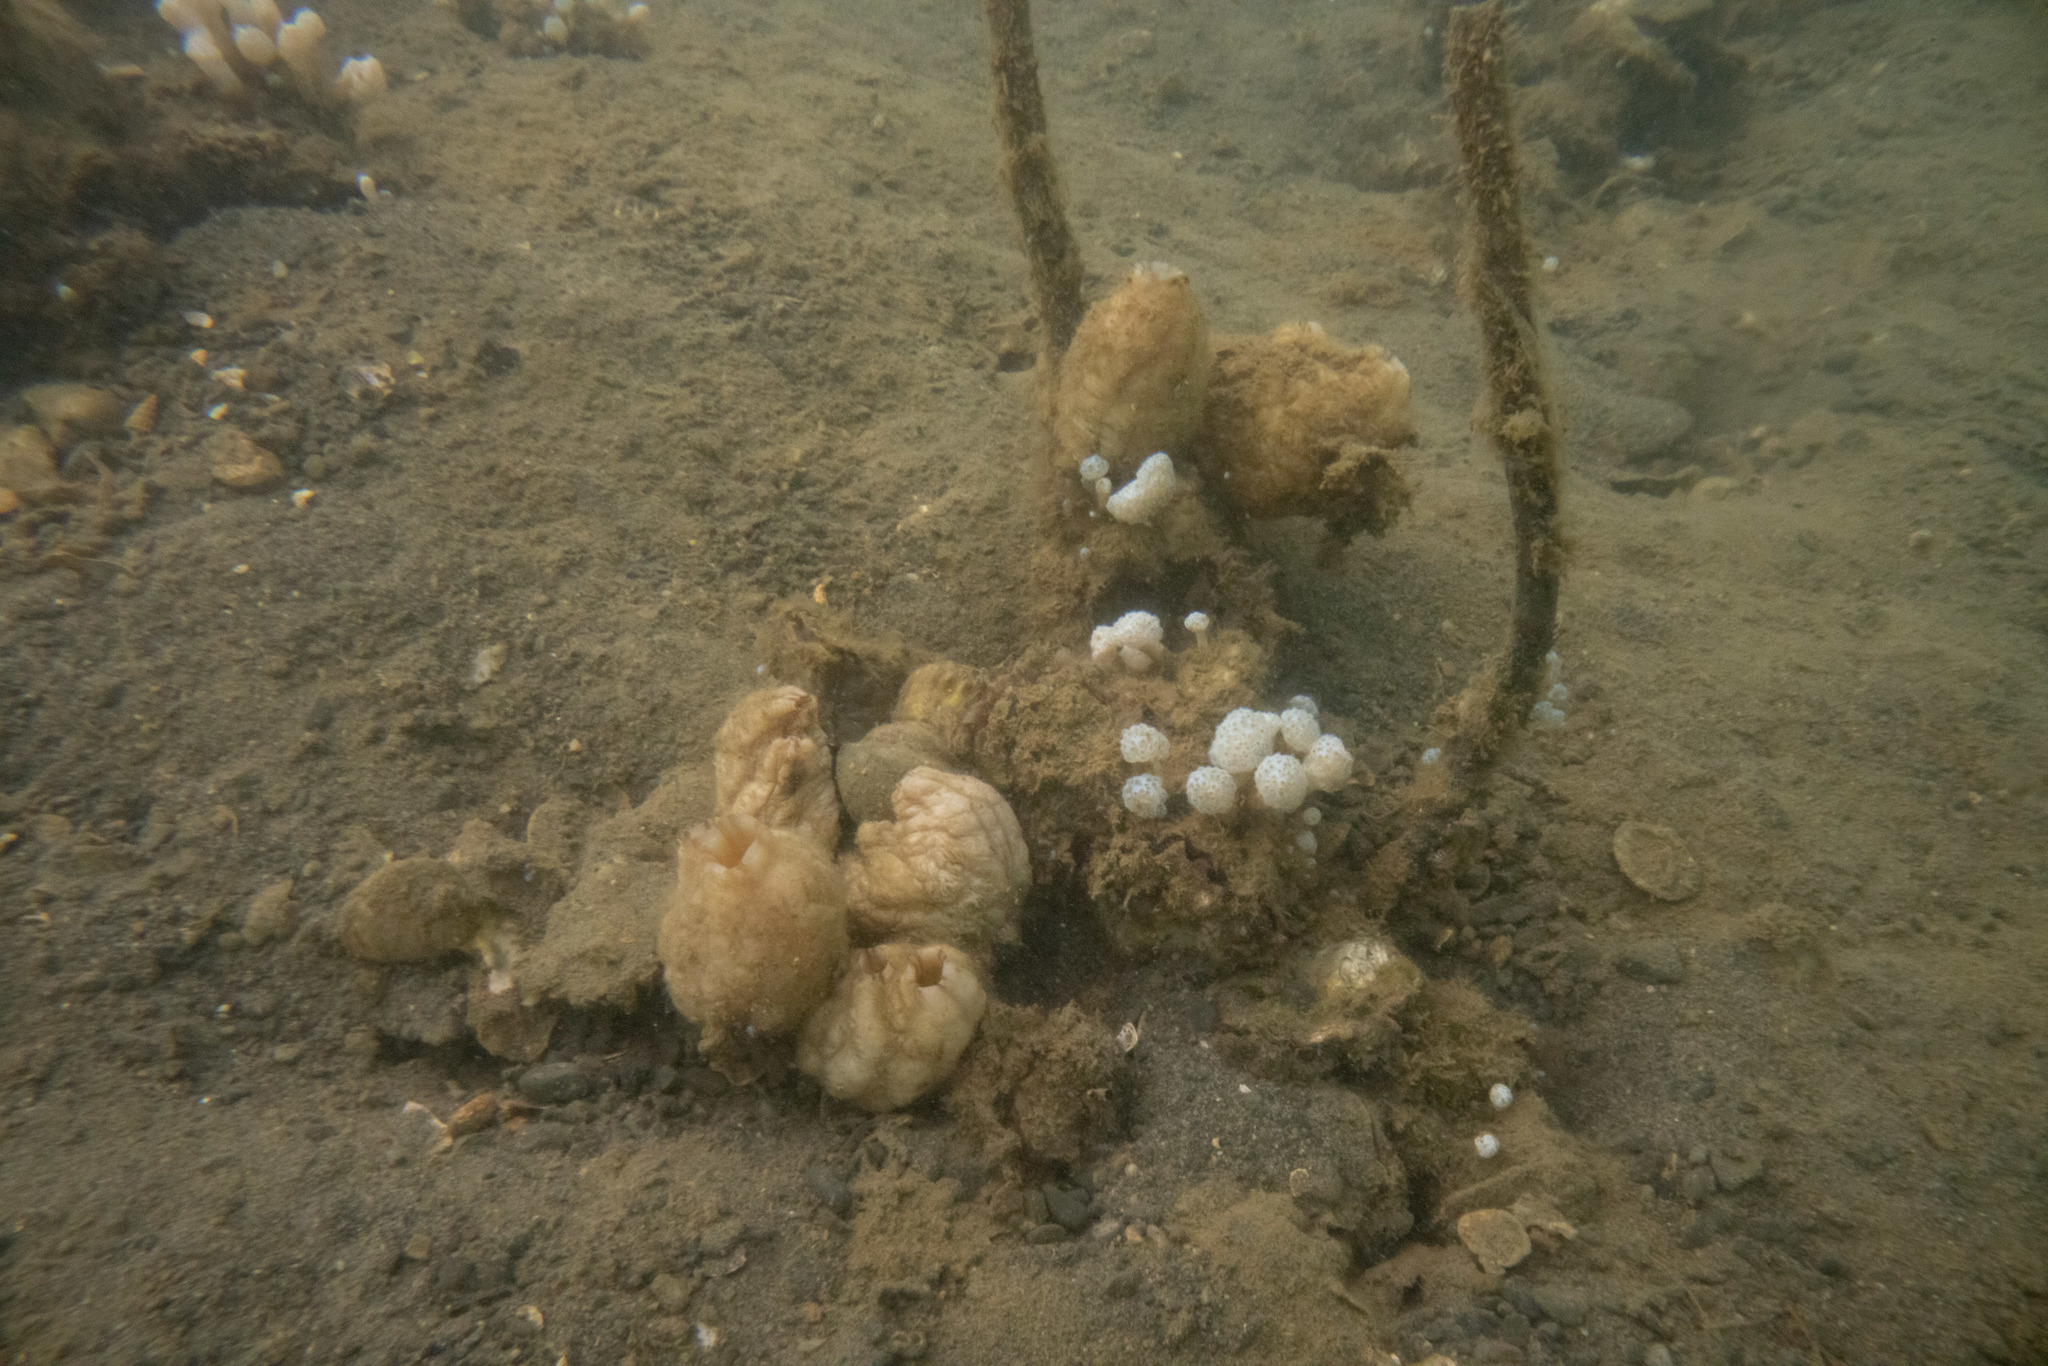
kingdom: Animalia
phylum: Chordata
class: Ascidiacea
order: Stolidobranchia
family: Styelidae
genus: Styela
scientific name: Styela plicata
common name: Pleated tunicate
